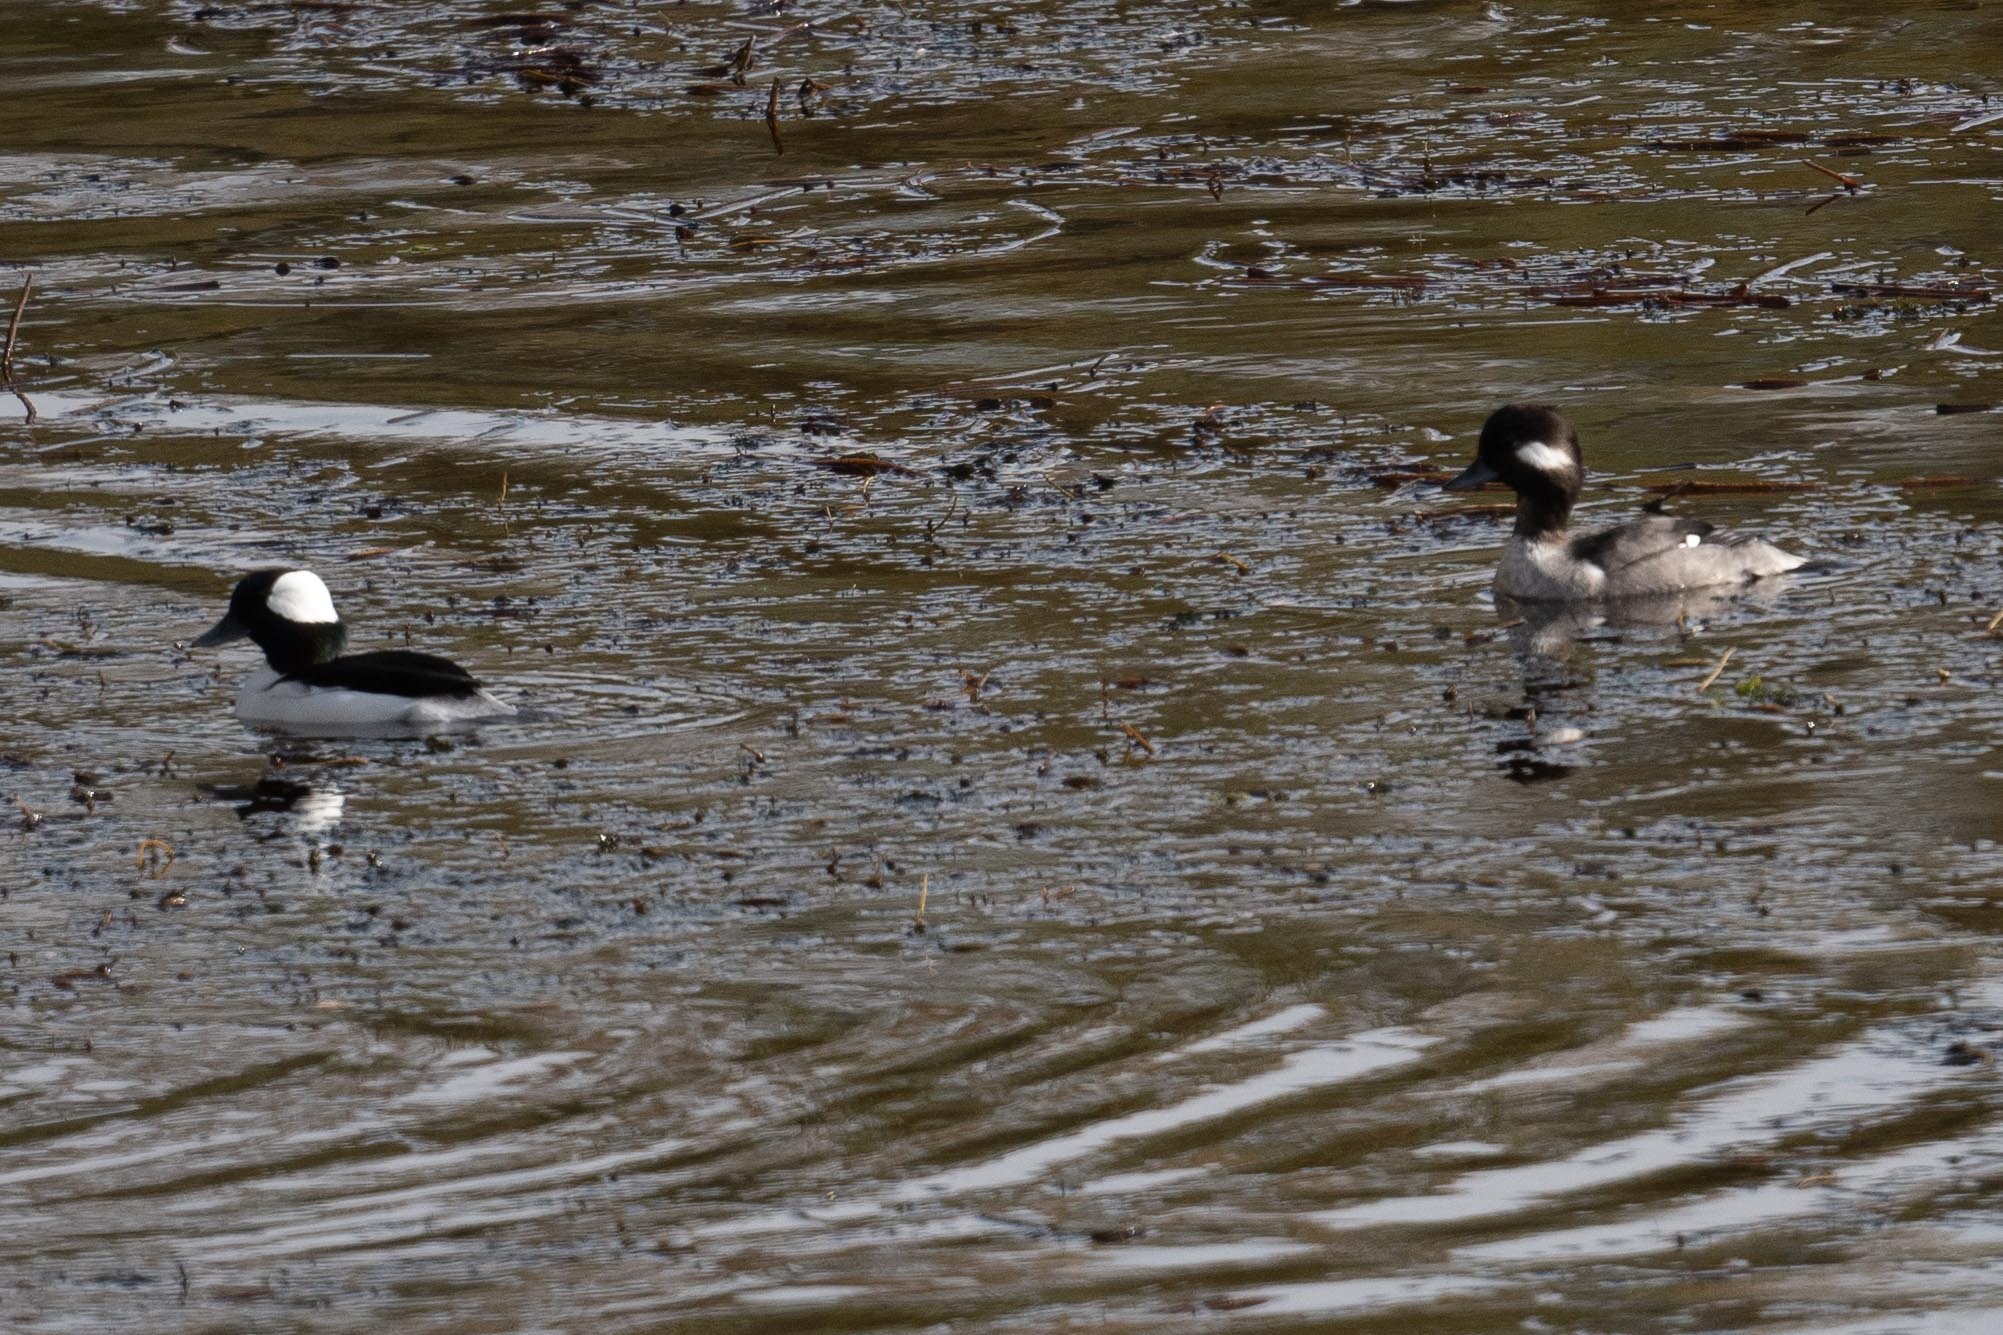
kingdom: Animalia
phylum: Chordata
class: Aves
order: Anseriformes
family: Anatidae
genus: Bucephala
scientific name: Bucephala albeola
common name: Bufflehead
